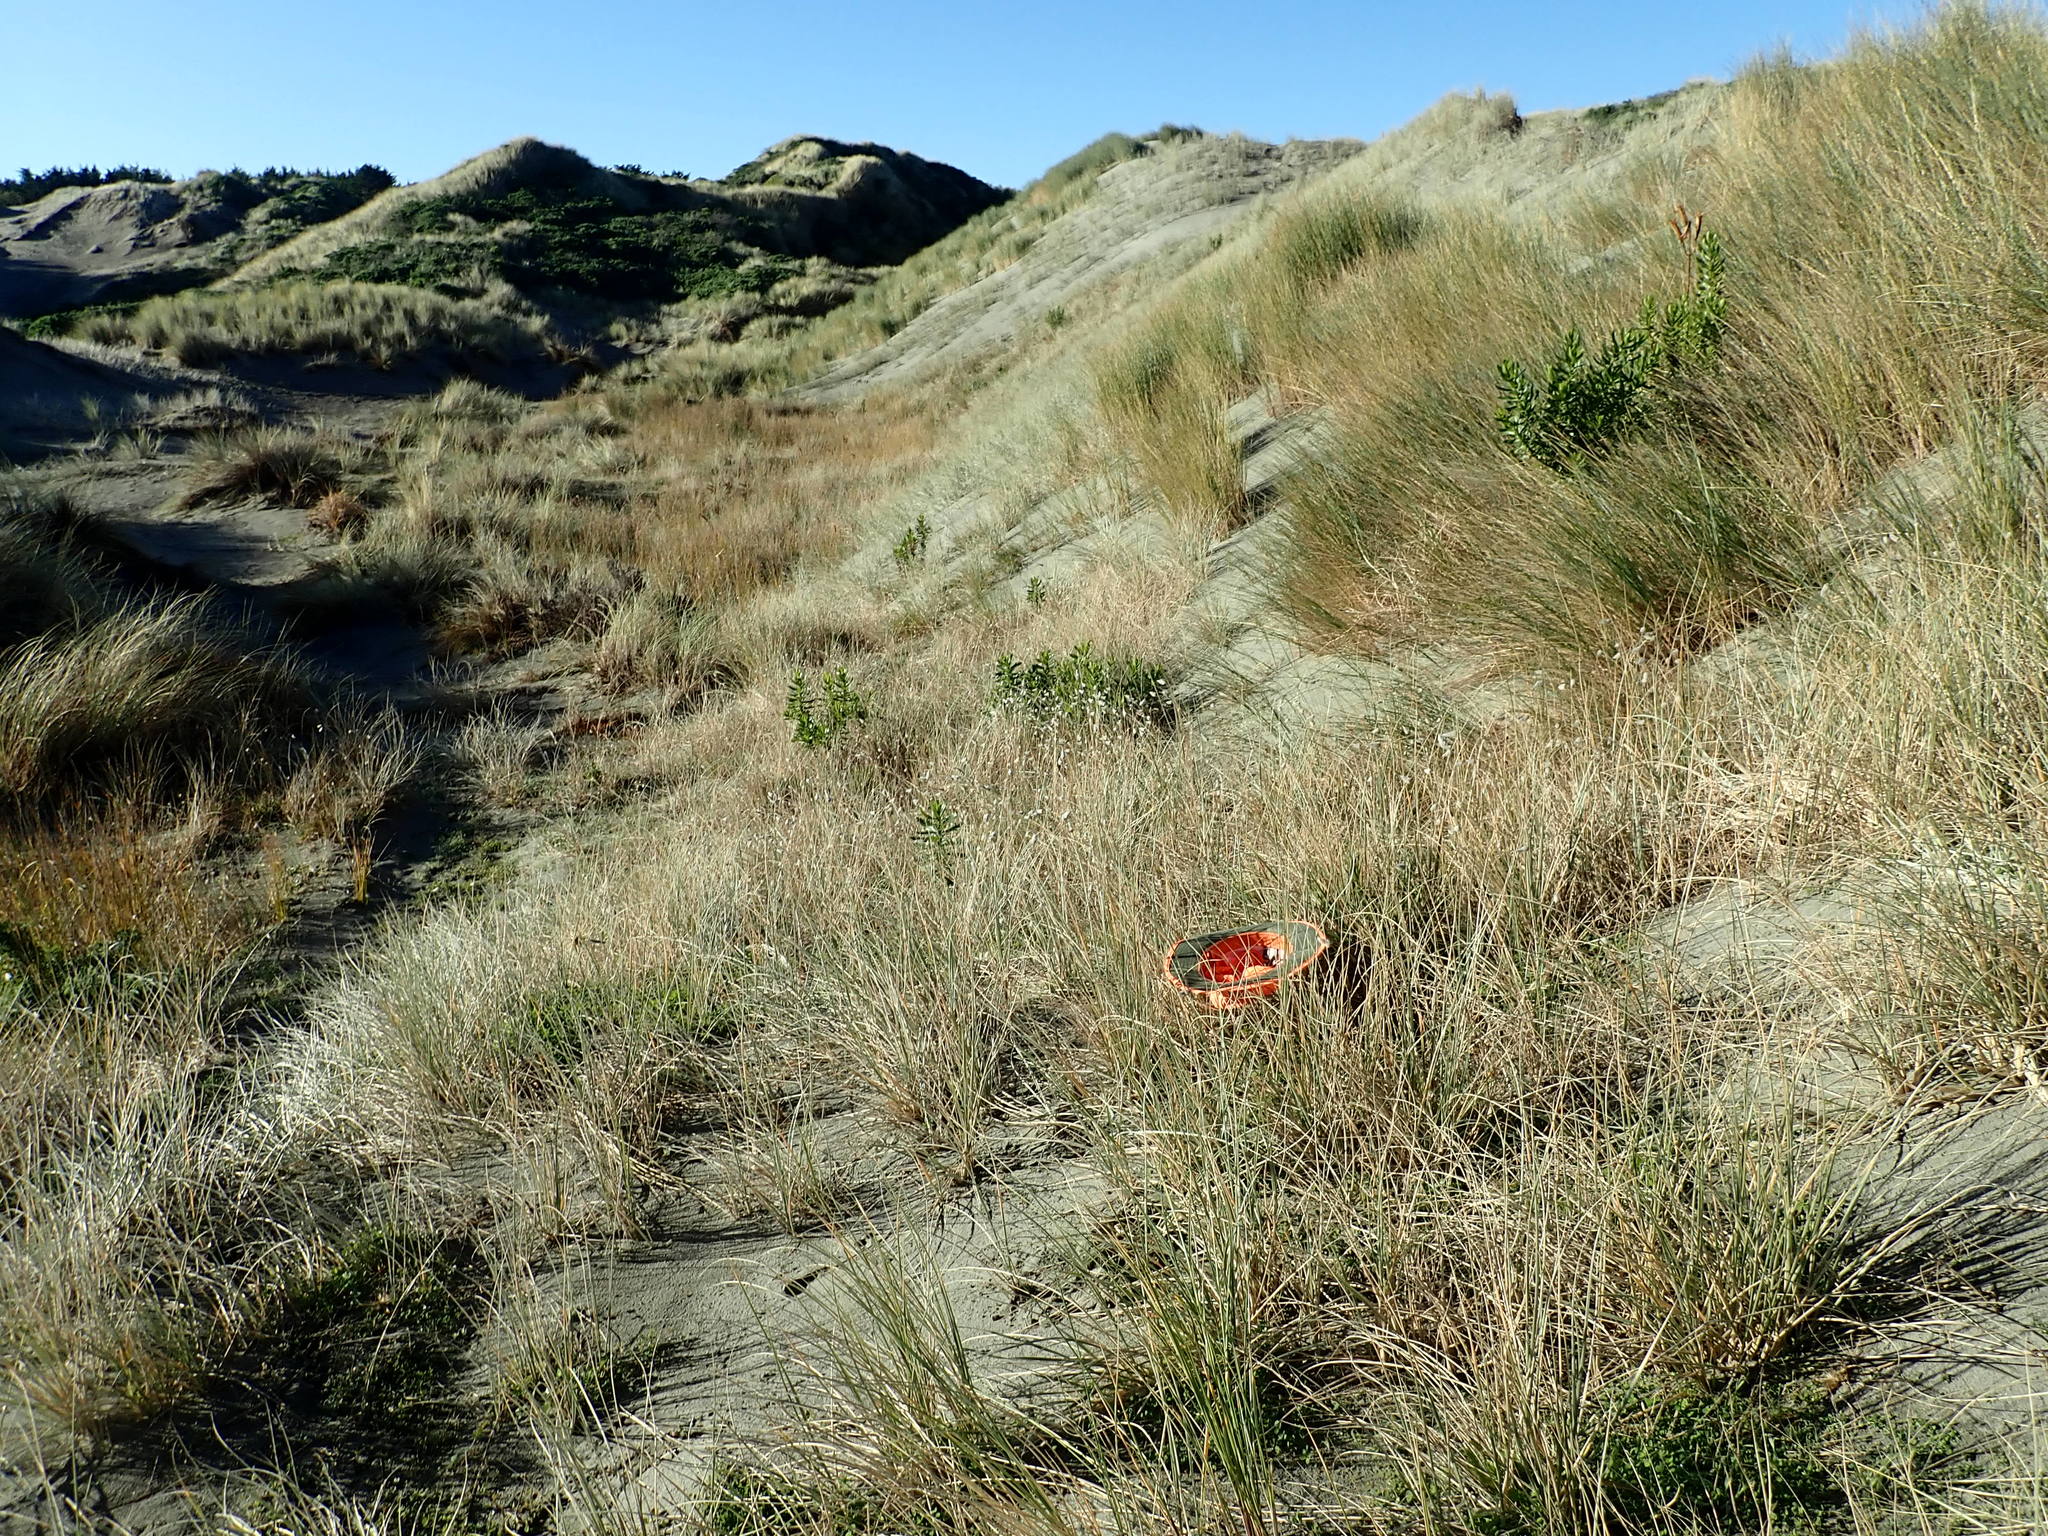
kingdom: Plantae
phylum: Tracheophyta
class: Liliopsida
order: Poales
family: Poaceae
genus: Lachnagrostis
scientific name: Lachnagrostis billardierei
